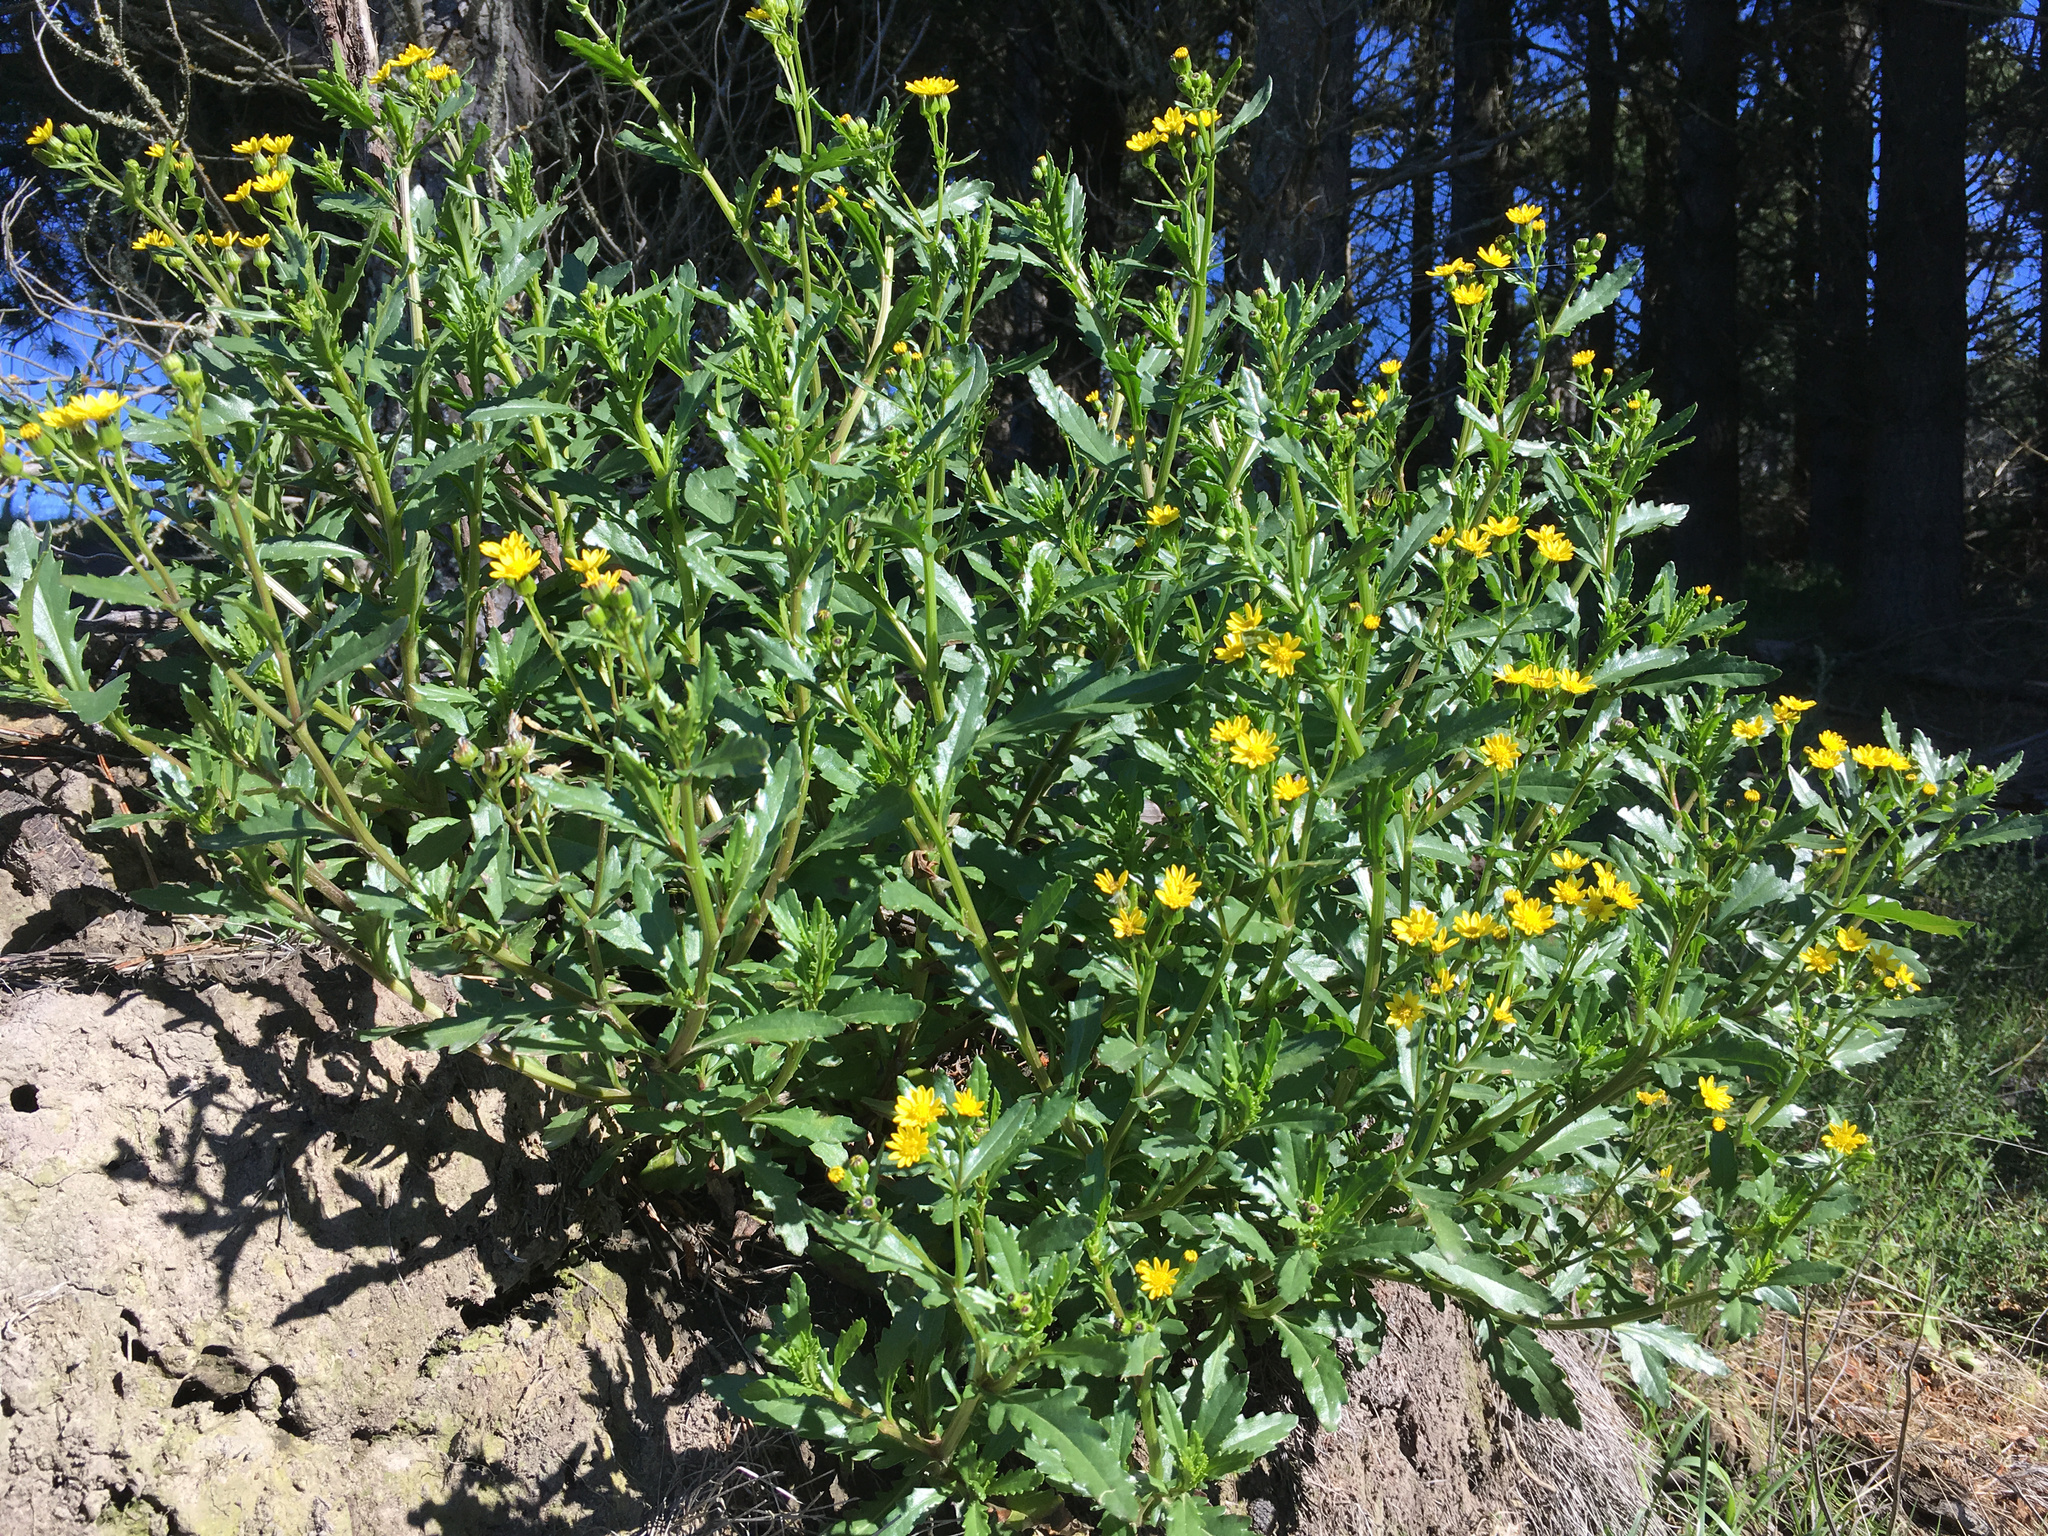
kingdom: Plantae
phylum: Tracheophyta
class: Magnoliopsida
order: Asterales
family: Asteraceae
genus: Senecio
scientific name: Senecio matatini
